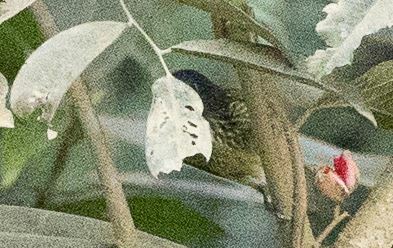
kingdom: Animalia
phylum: Chordata
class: Aves
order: Passeriformes
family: Tyrannidae
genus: Mionectes
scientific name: Mionectes striaticollis
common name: Streak-necked flycatcher
